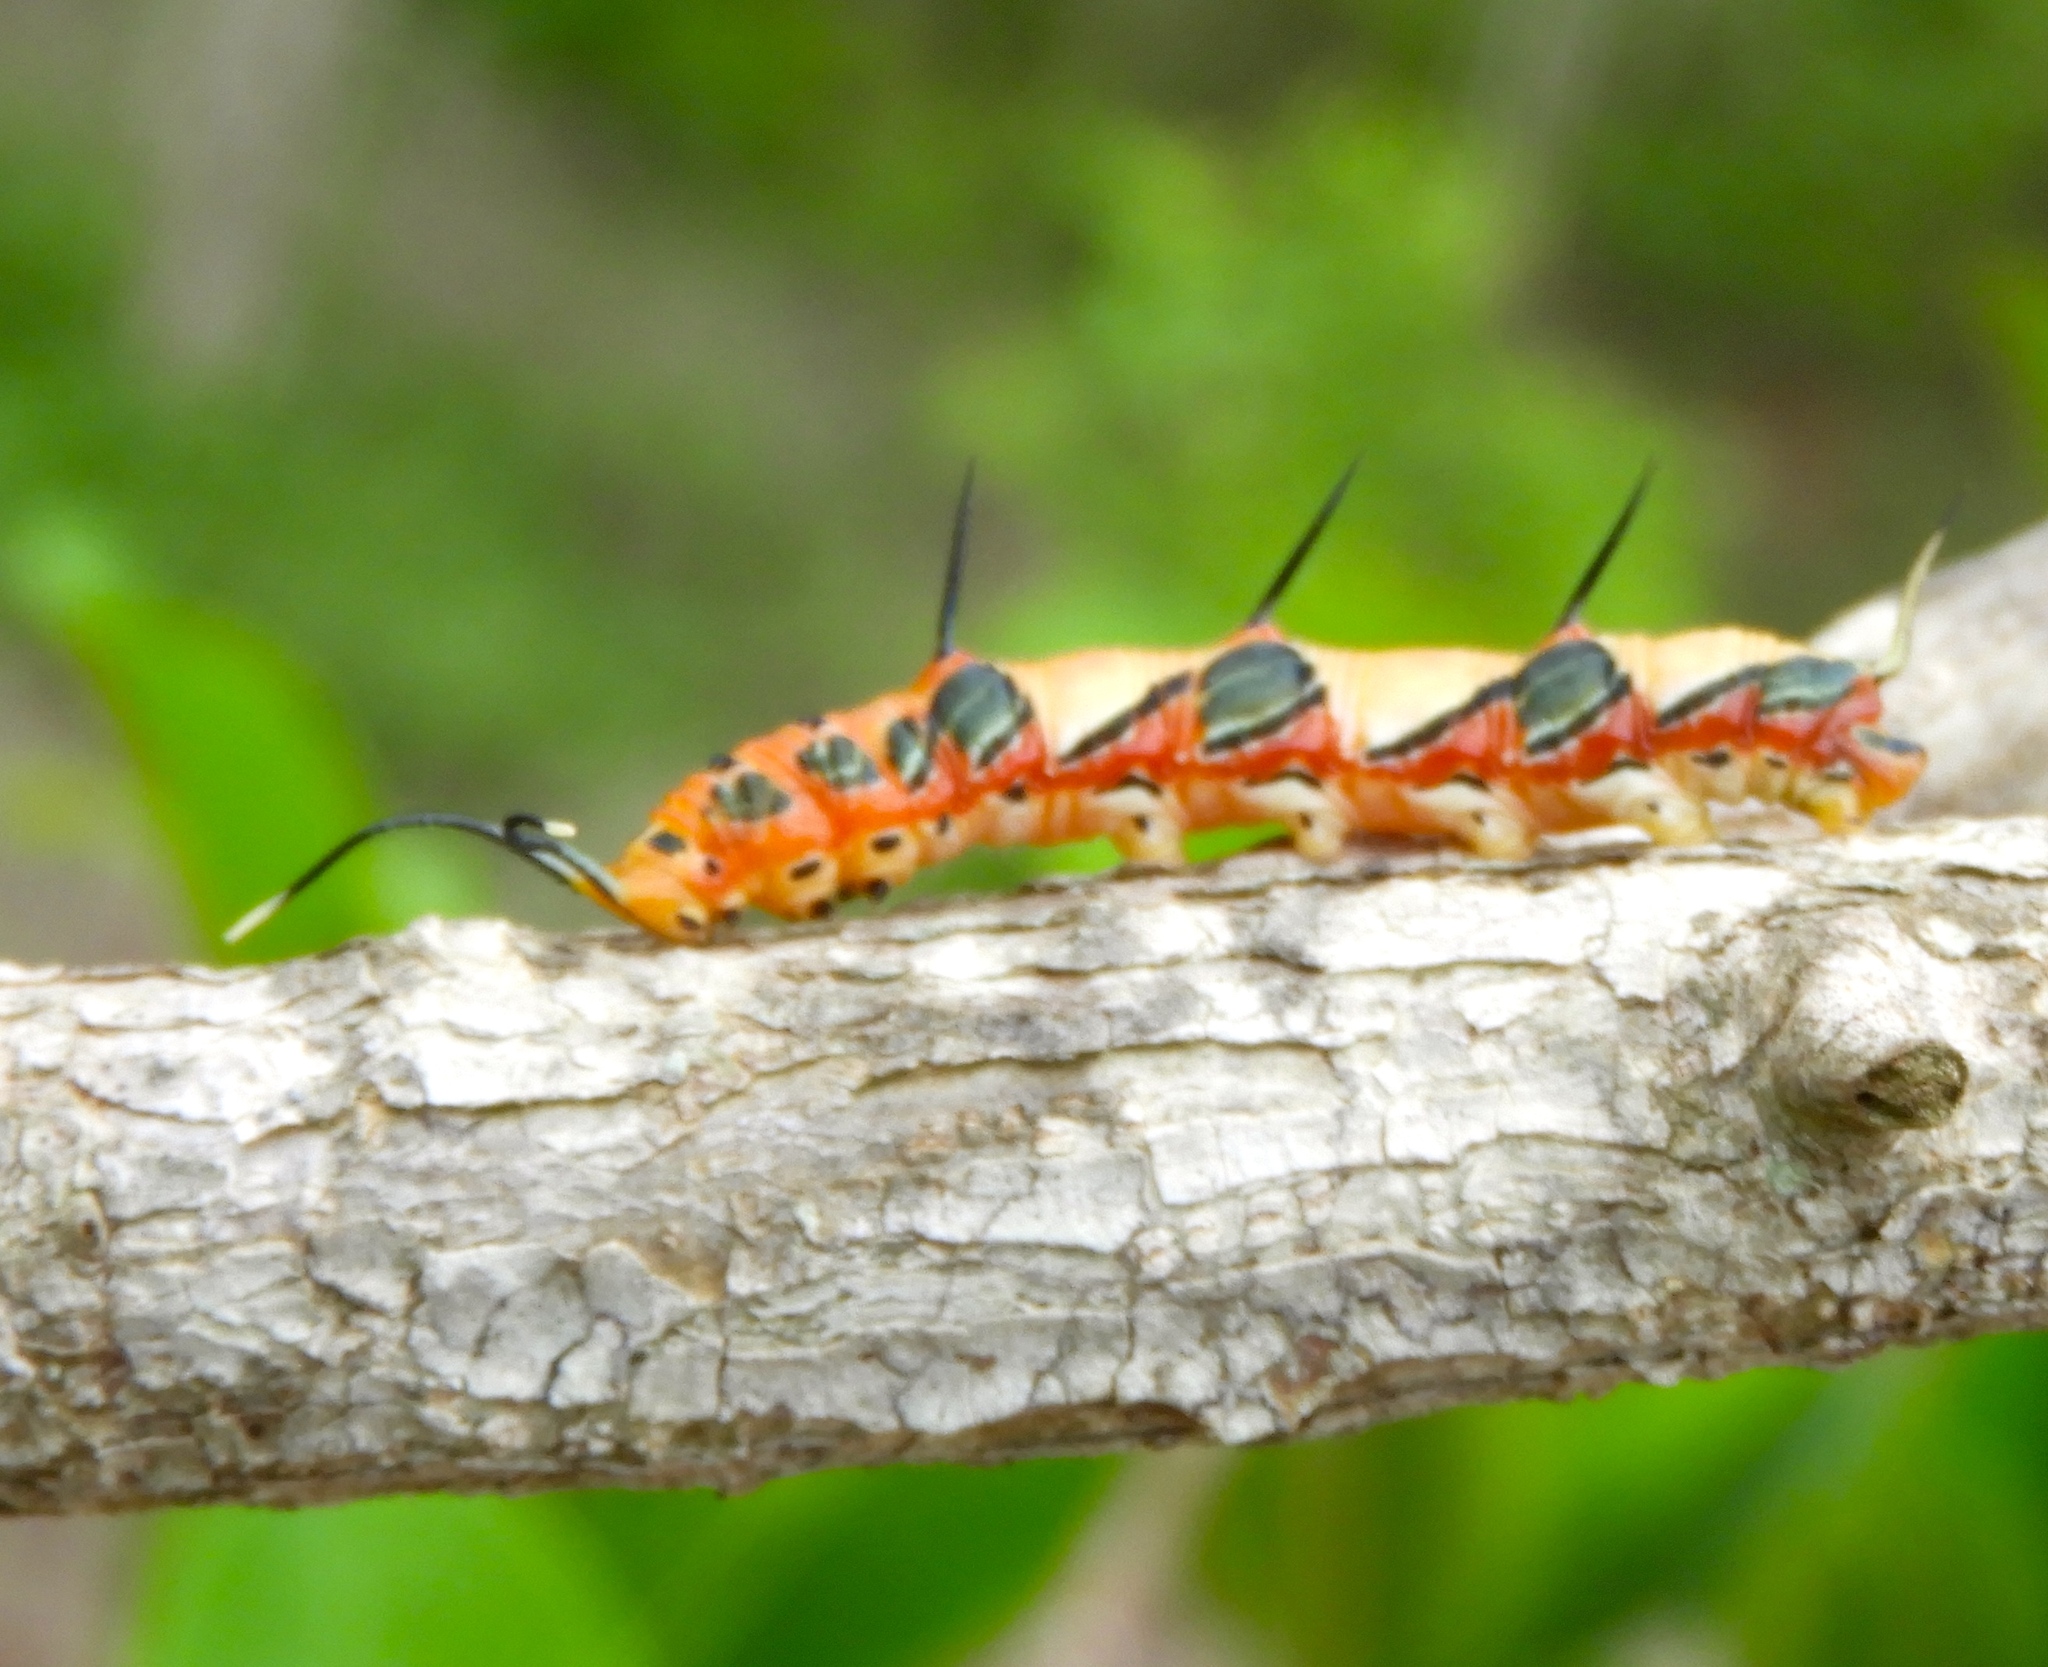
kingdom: Animalia
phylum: Arthropoda
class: Insecta
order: Lepidoptera
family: Nymphalidae
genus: Marpesia
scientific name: Marpesia petreus
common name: Red dagger wing
